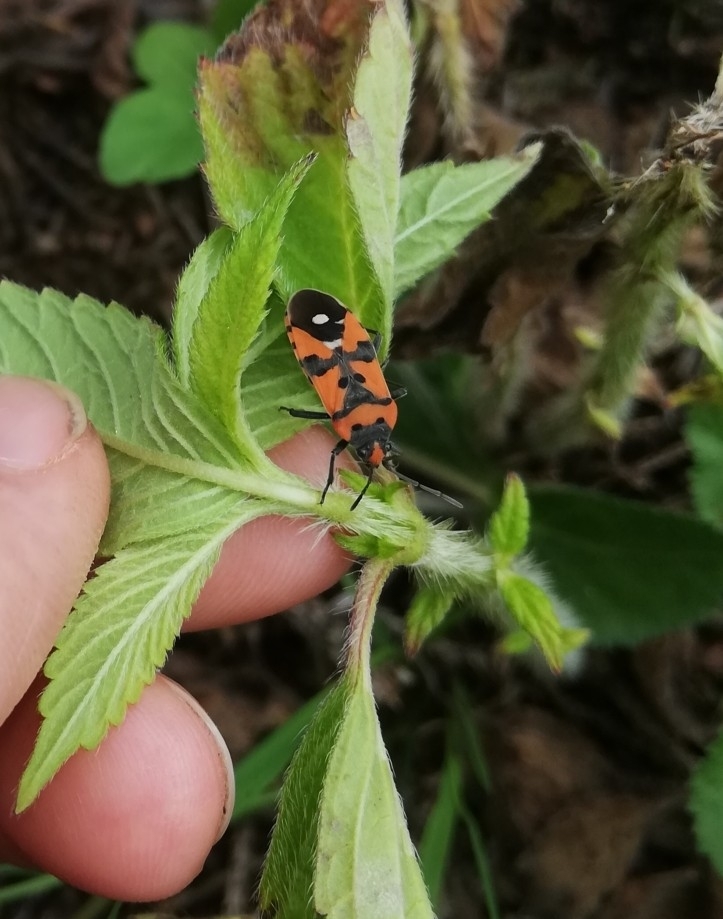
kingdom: Animalia
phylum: Arthropoda
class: Insecta
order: Hemiptera
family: Lygaeidae
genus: Lygaeus
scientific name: Lygaeus equestris
